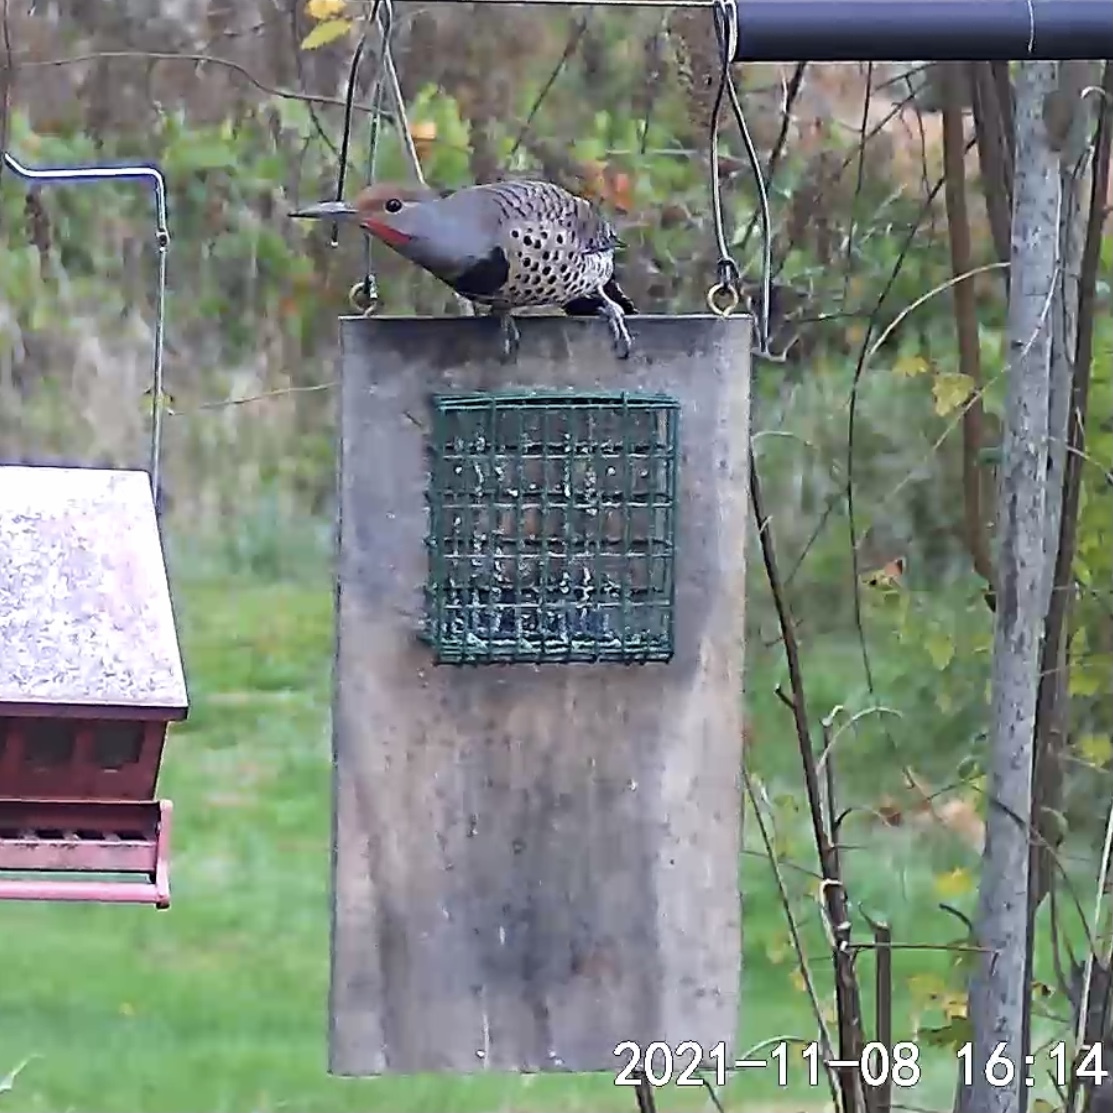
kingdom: Animalia
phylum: Chordata
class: Aves
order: Piciformes
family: Picidae
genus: Colaptes
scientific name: Colaptes auratus
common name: Northern flicker
